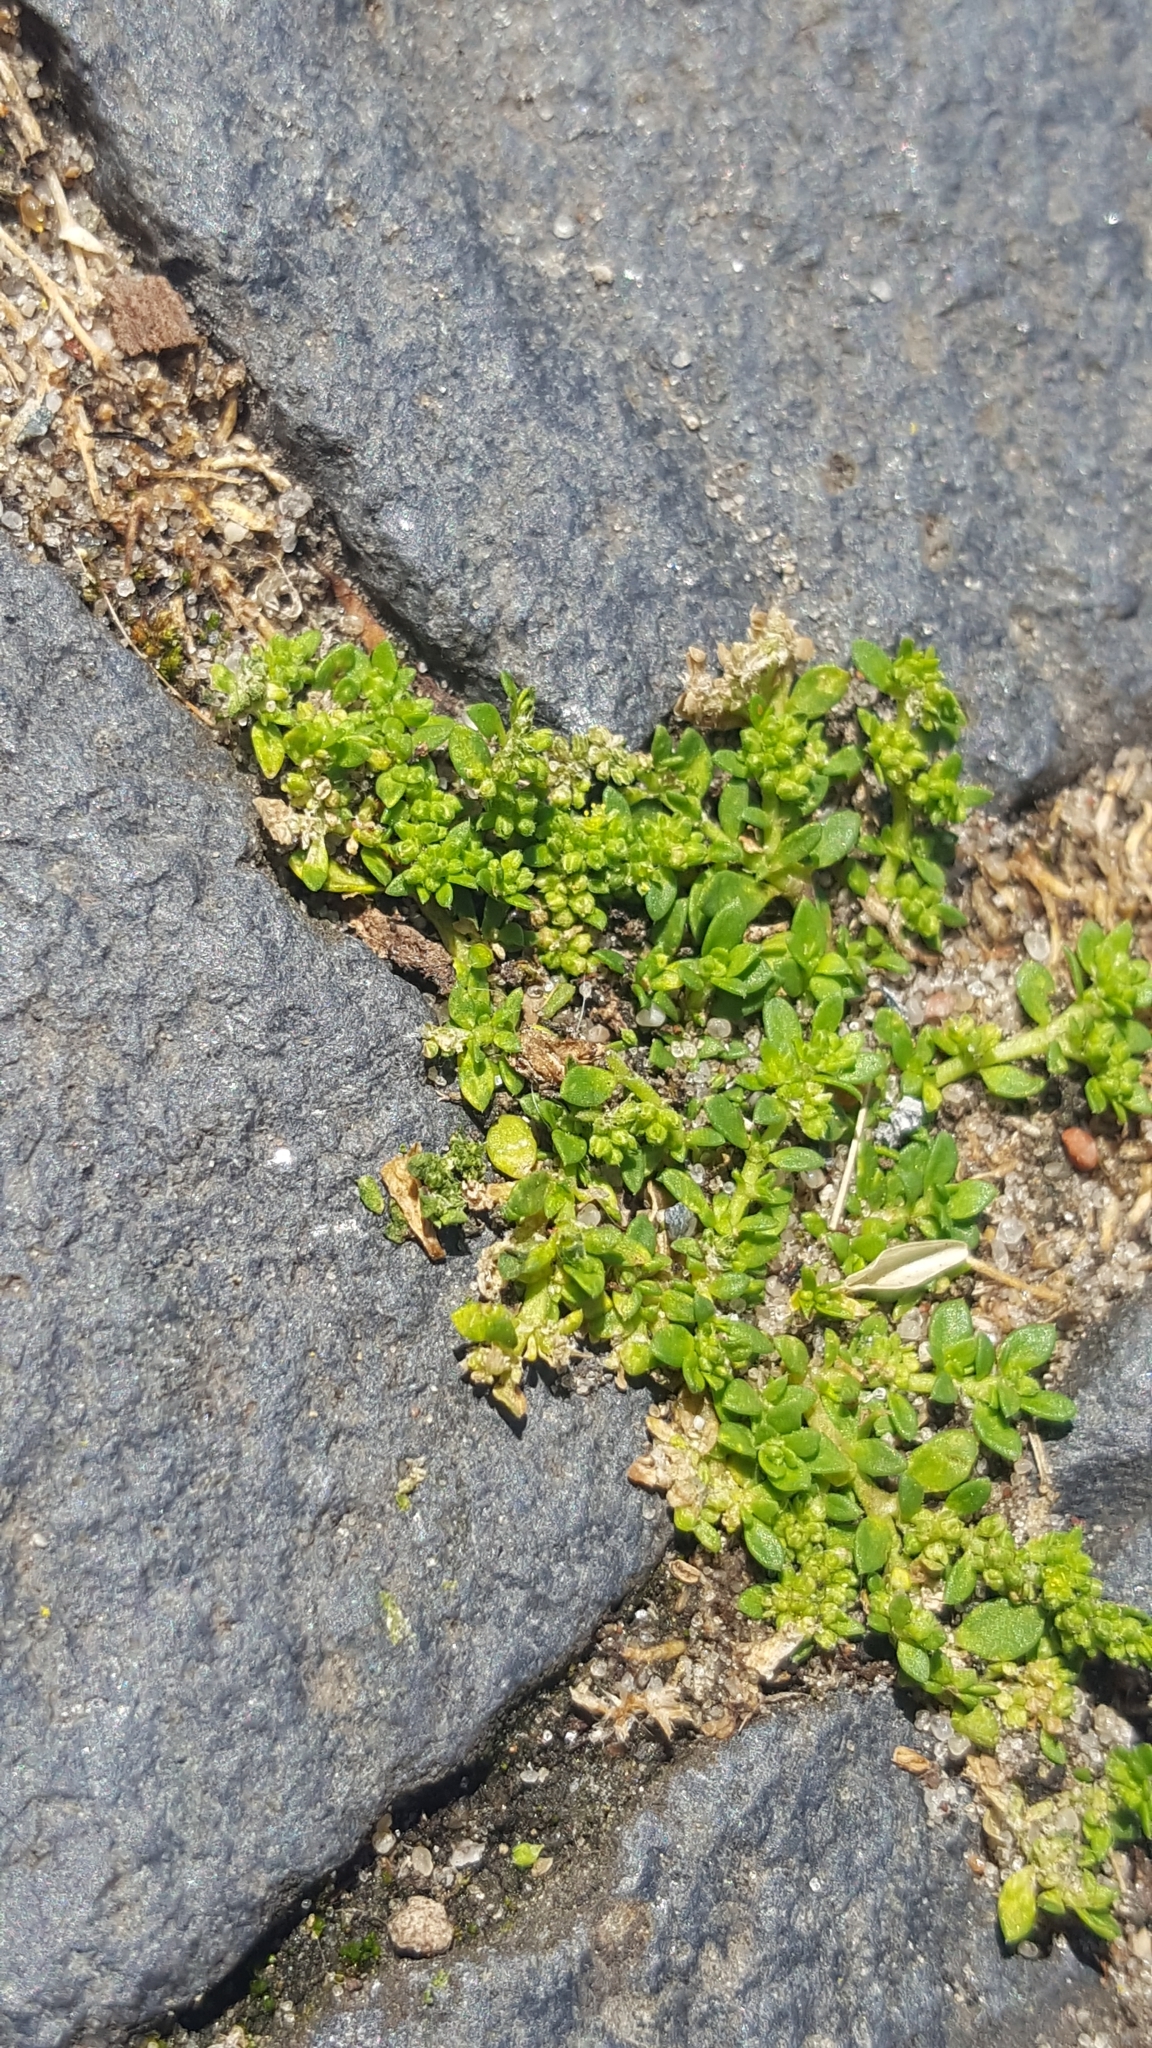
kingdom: Plantae
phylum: Tracheophyta
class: Magnoliopsida
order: Caryophyllales
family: Caryophyllaceae
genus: Herniaria
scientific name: Herniaria glabra
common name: Smooth rupturewort
